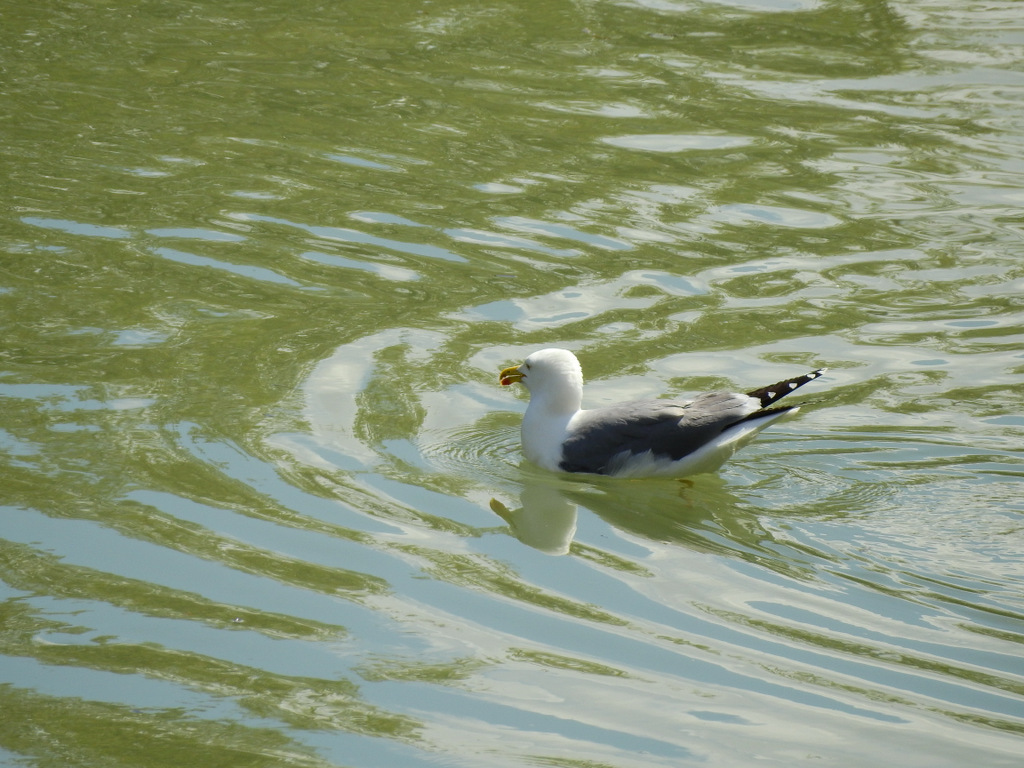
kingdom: Animalia
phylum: Chordata
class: Aves
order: Charadriiformes
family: Laridae
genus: Larus
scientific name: Larus michahellis
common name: Yellow-legged gull
